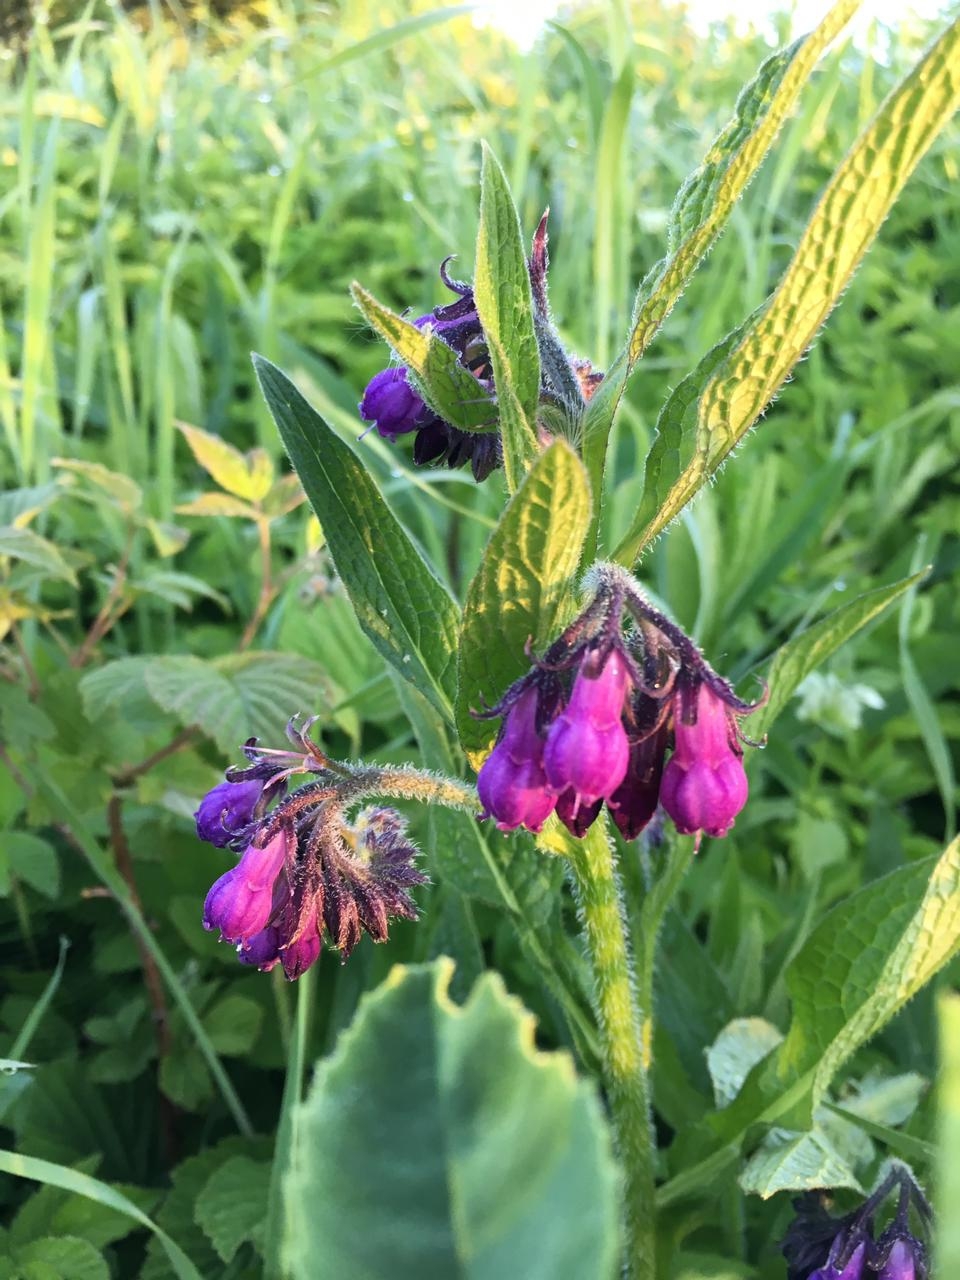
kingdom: Plantae
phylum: Tracheophyta
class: Magnoliopsida
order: Boraginales
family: Boraginaceae
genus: Symphytum
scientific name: Symphytum officinale
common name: Common comfrey
